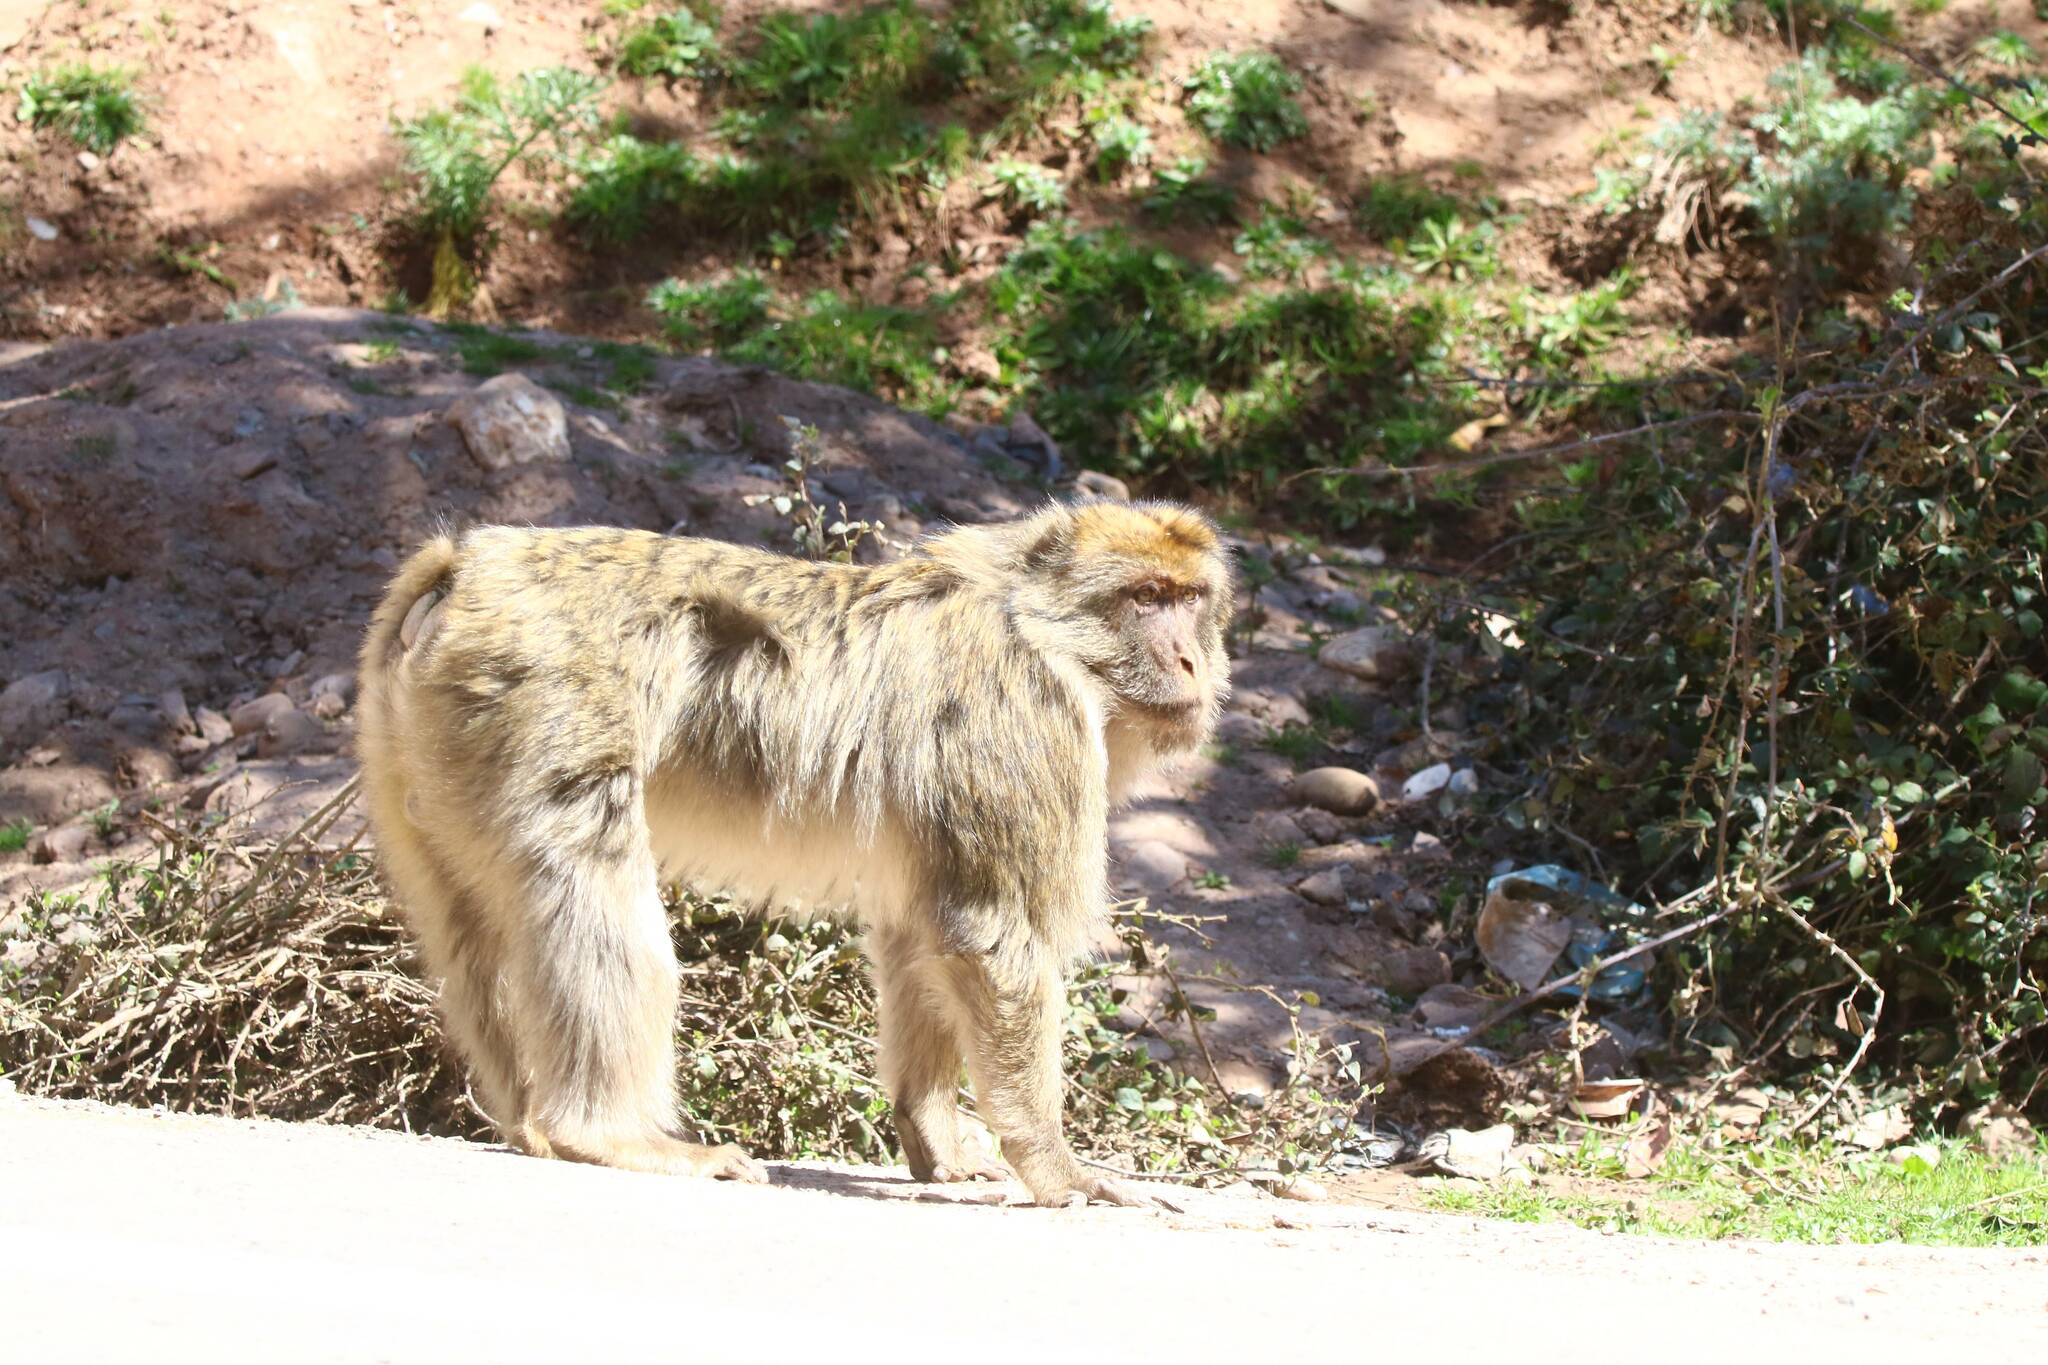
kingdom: Animalia
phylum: Chordata
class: Mammalia
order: Primates
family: Cercopithecidae
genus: Macaca
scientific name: Macaca sylvanus
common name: Barbary macaque
